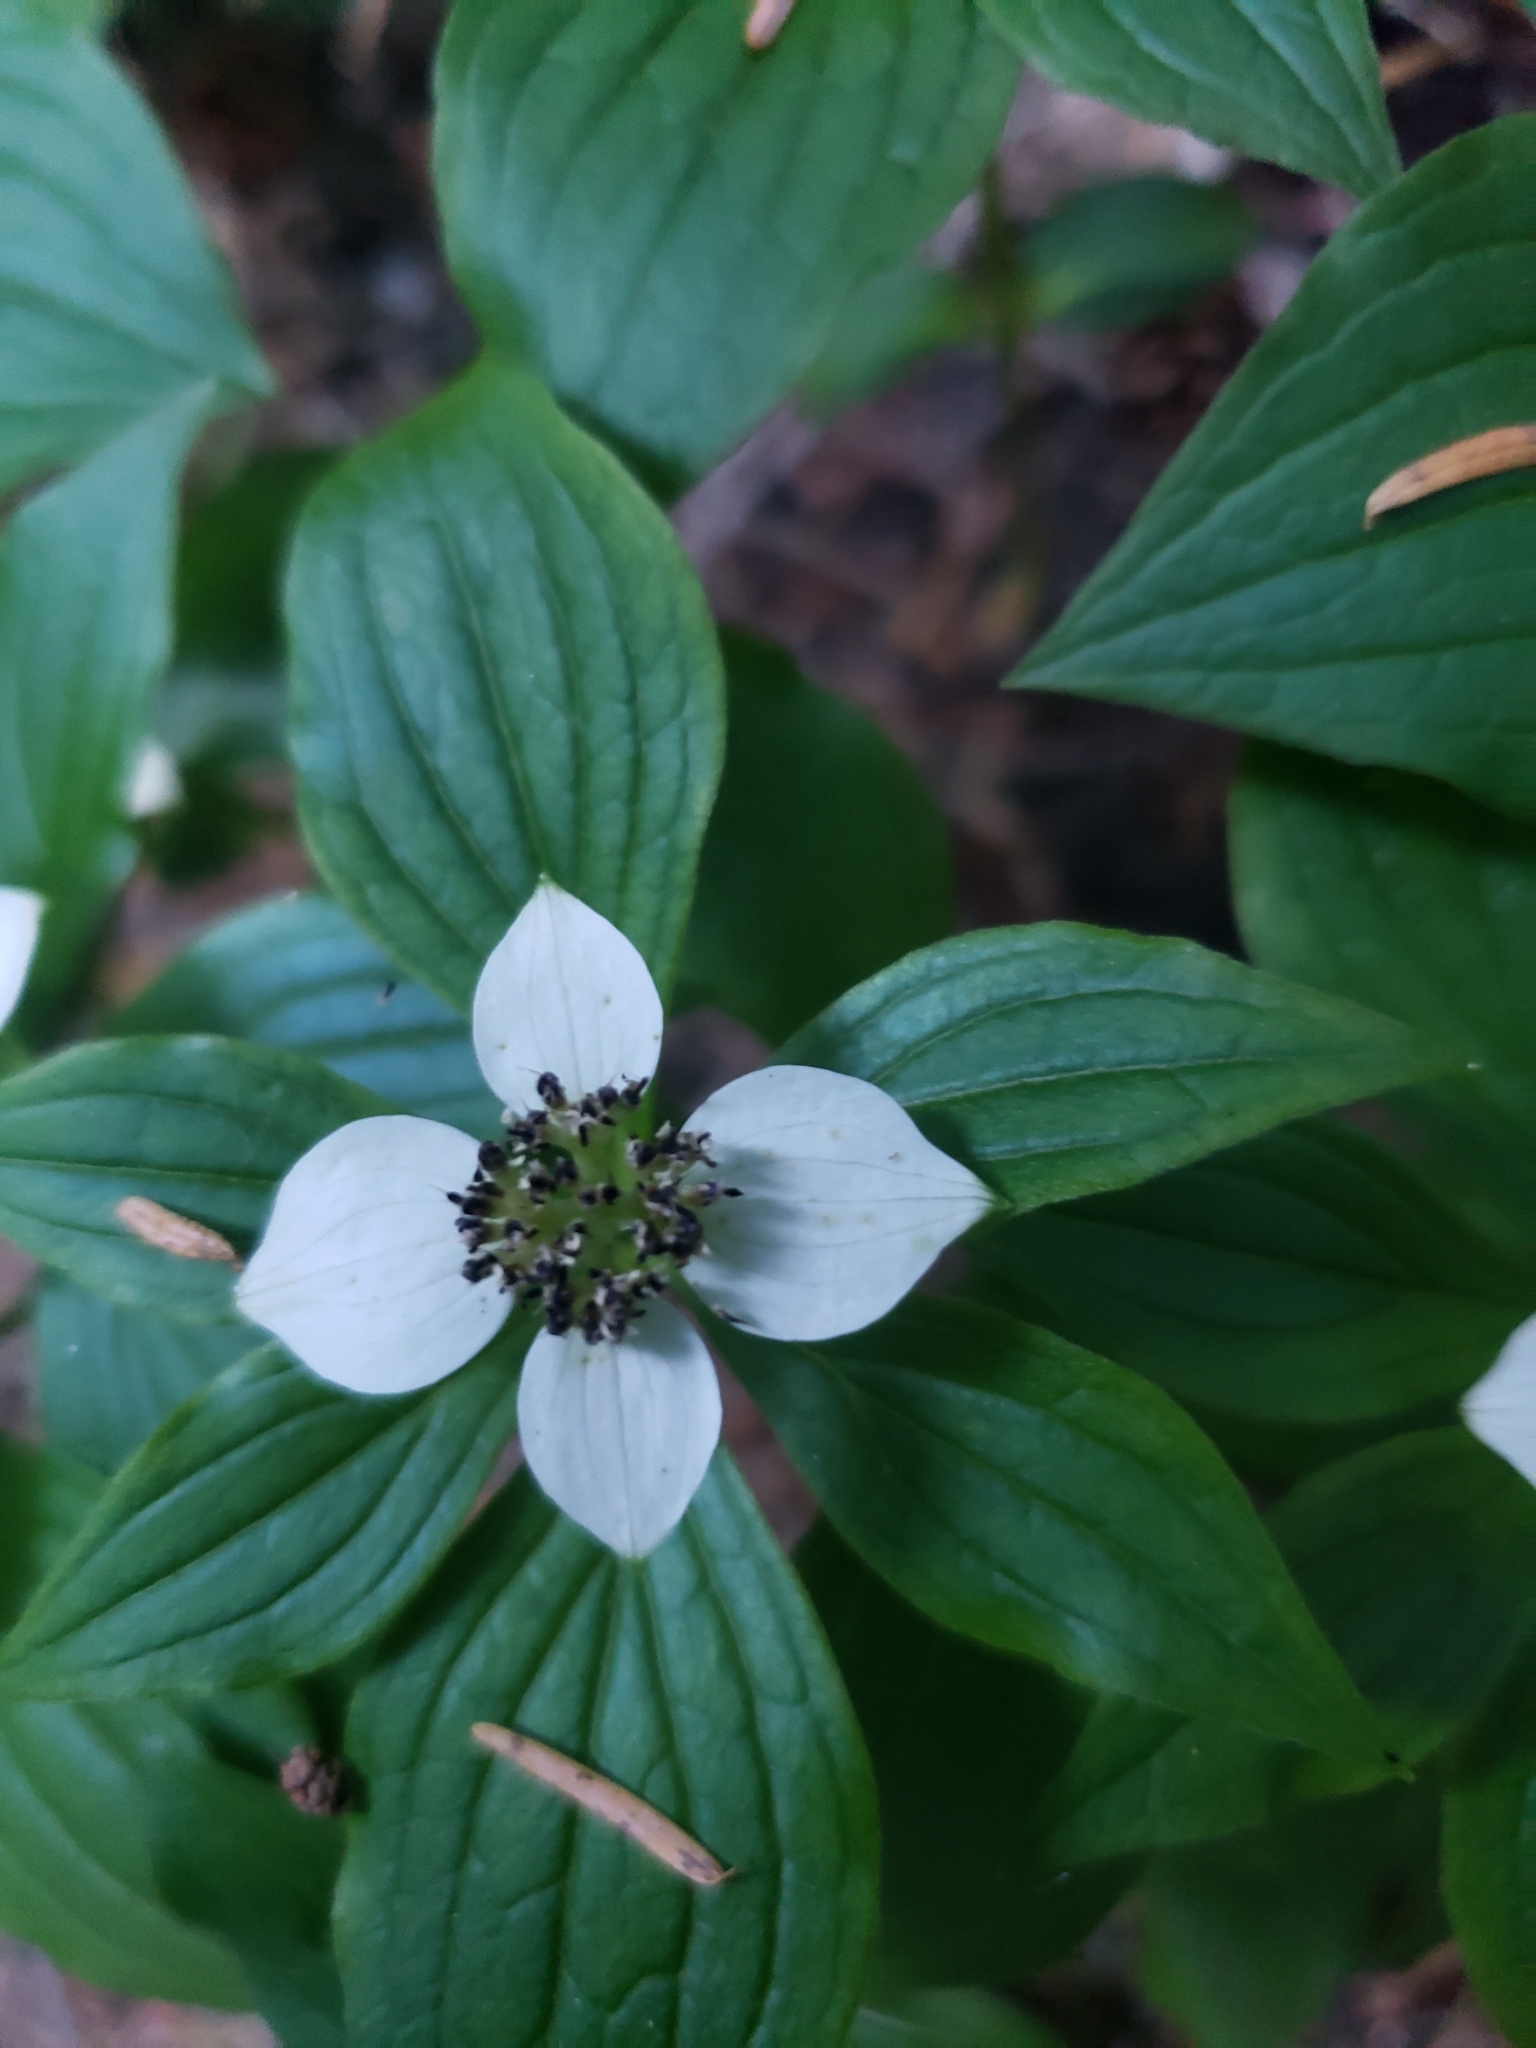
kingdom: Plantae
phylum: Tracheophyta
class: Magnoliopsida
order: Cornales
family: Cornaceae
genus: Cornus
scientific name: Cornus unalaschkensis
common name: Alaska bunchberry
